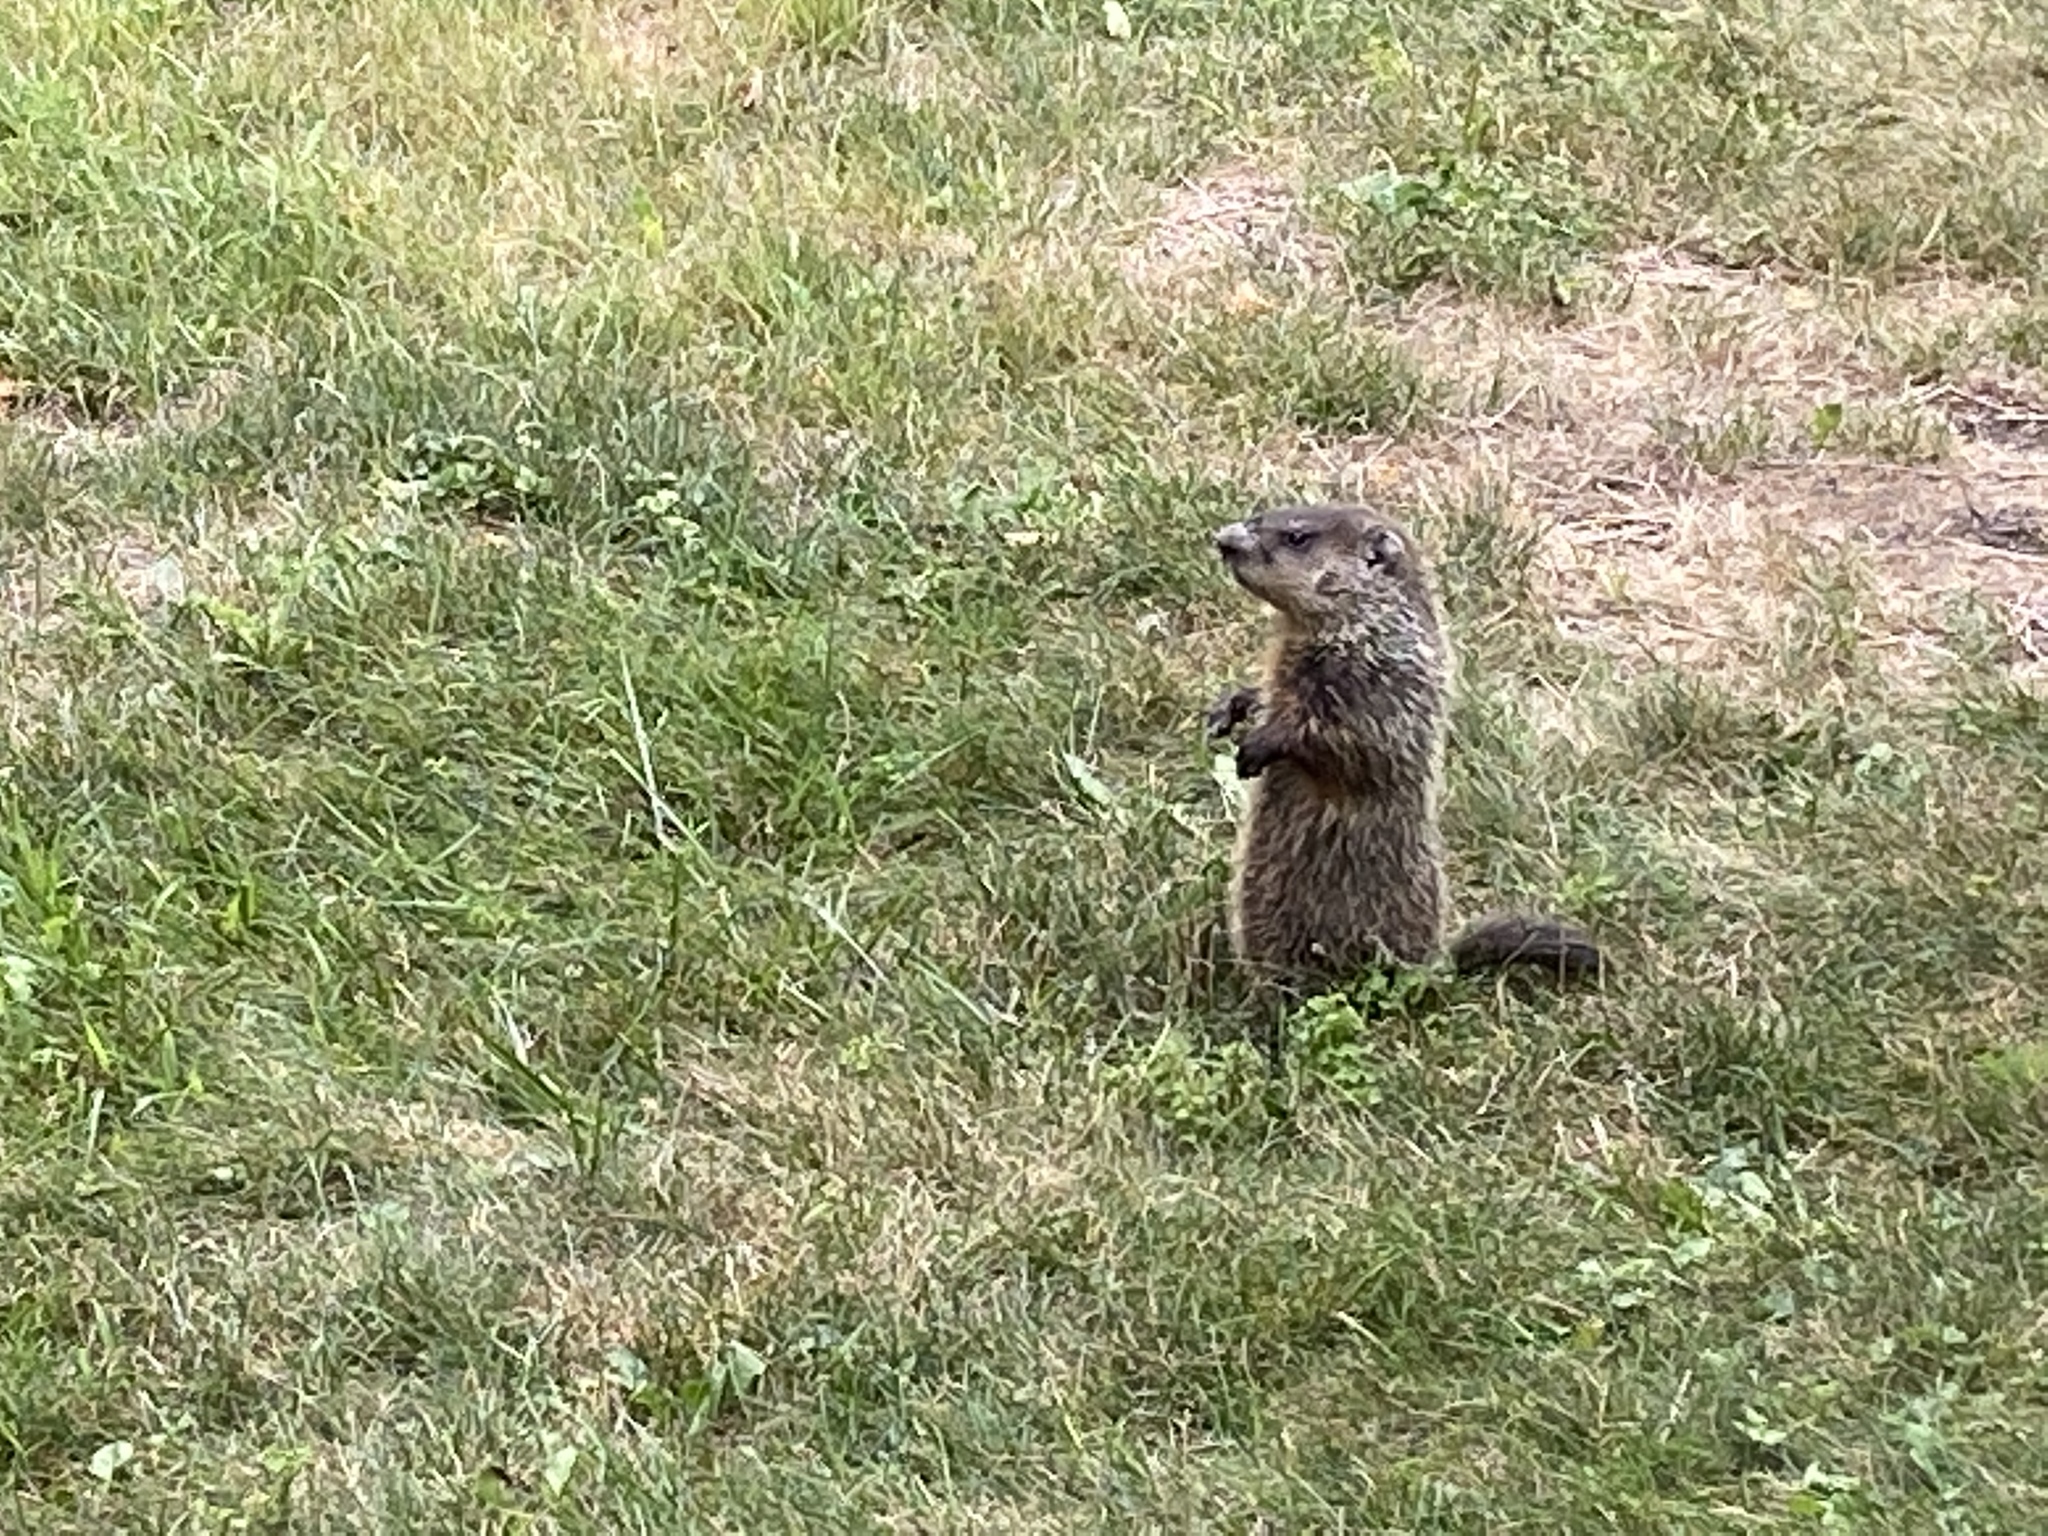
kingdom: Animalia
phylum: Chordata
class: Mammalia
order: Rodentia
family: Sciuridae
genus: Marmota
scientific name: Marmota monax
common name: Groundhog
